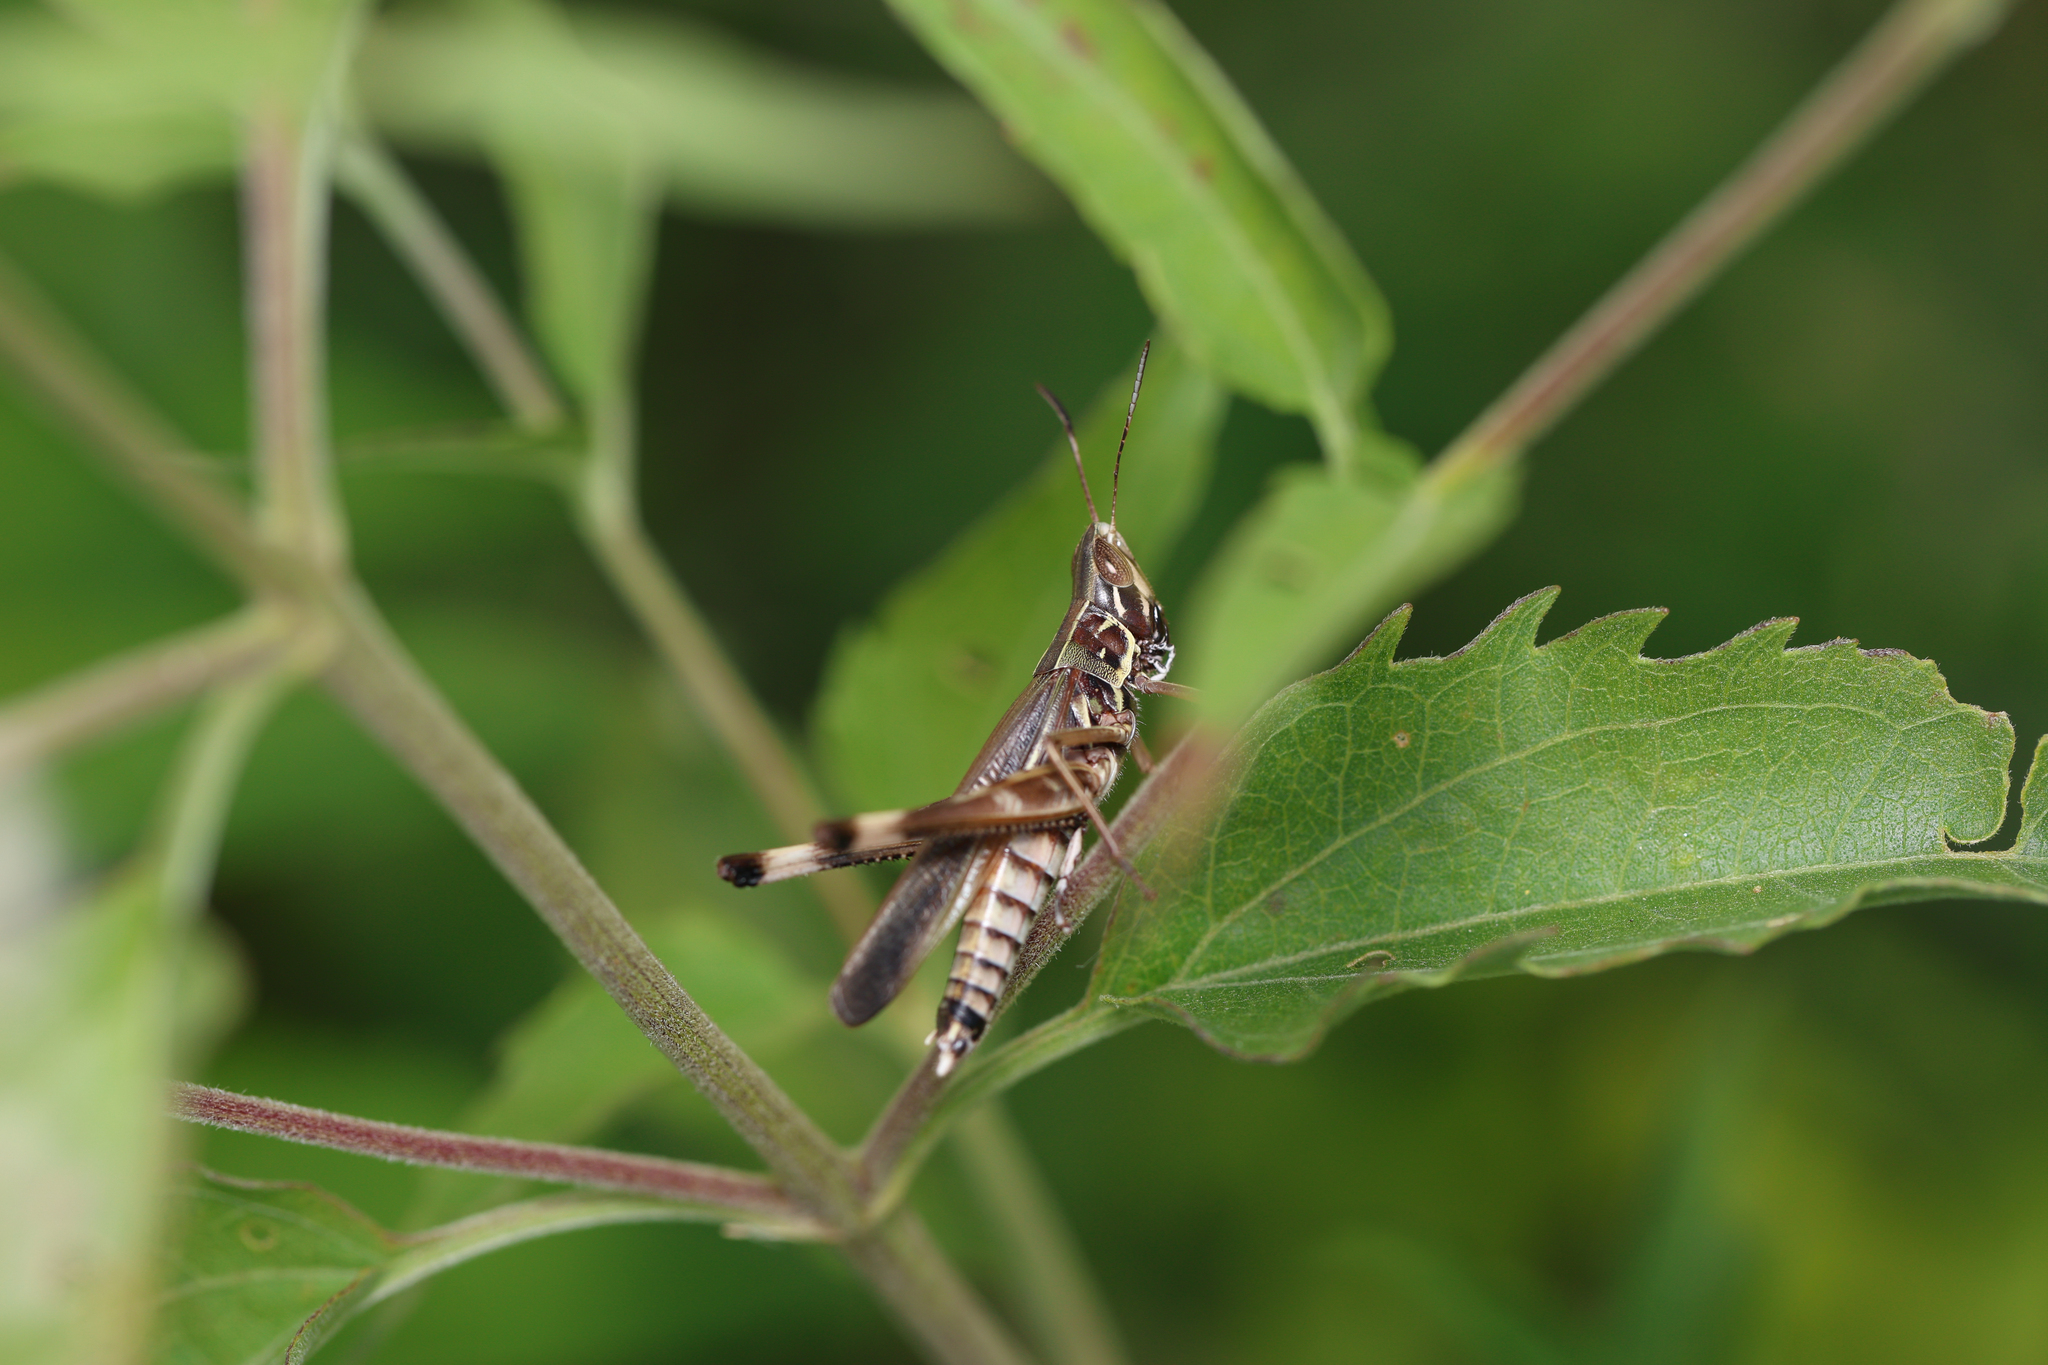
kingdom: Animalia
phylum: Arthropoda
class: Insecta
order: Orthoptera
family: Acrididae
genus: Syrbula
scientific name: Syrbula admirabilis
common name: Handsome grasshopper
